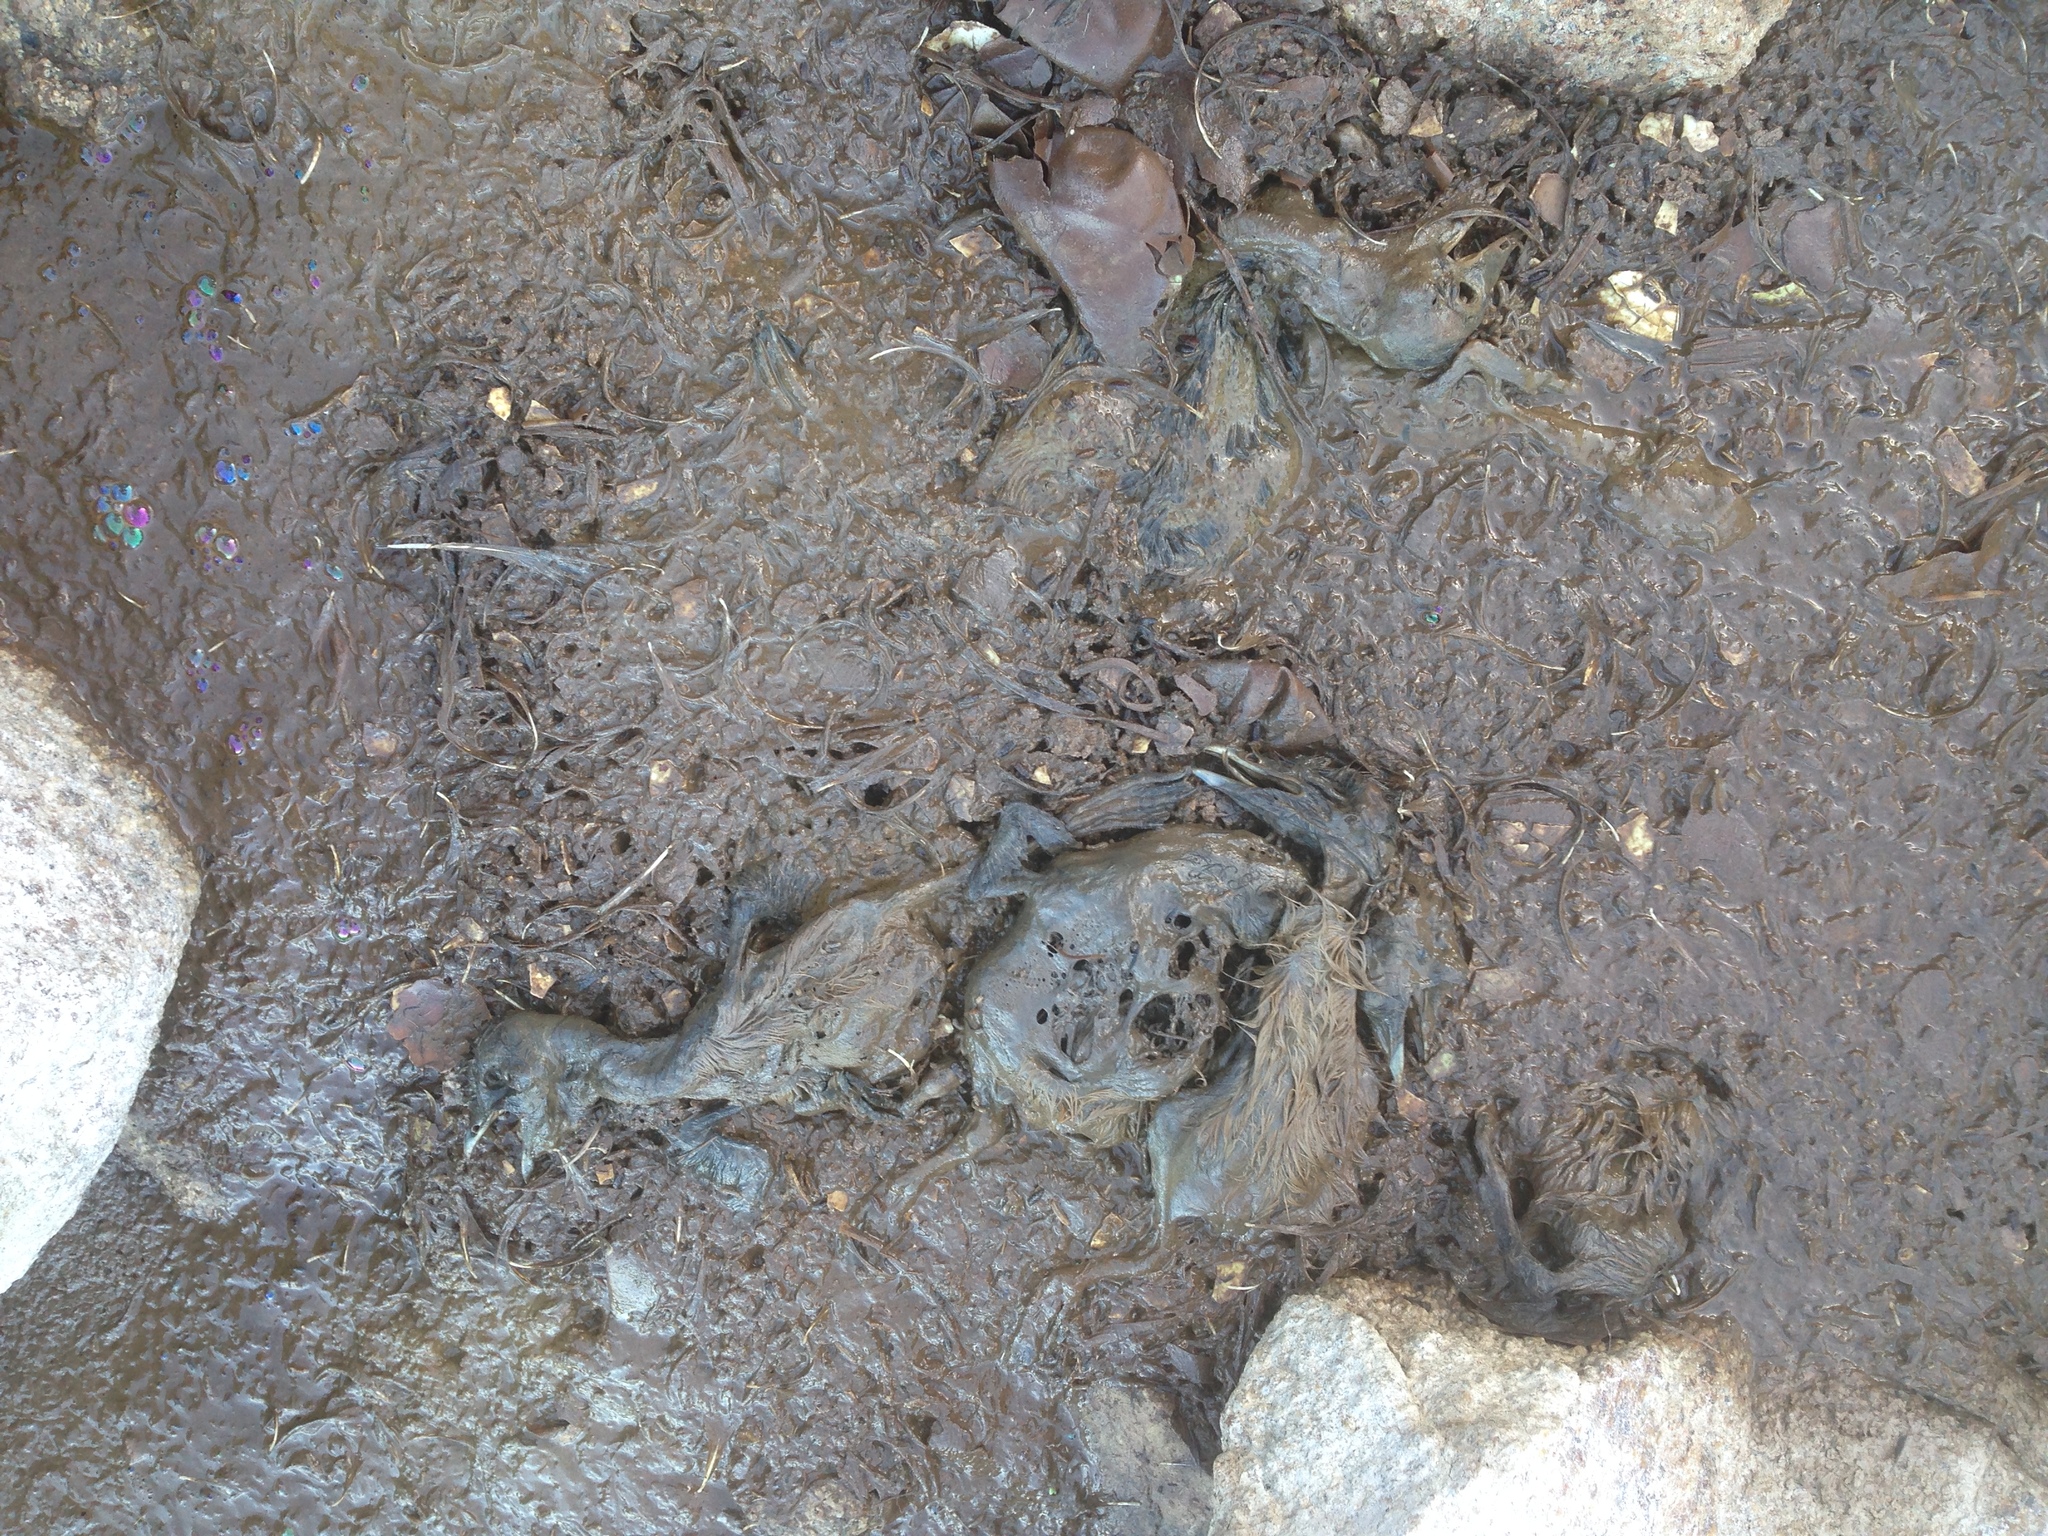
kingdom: Animalia
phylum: Chordata
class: Aves
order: Charadriiformes
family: Alcidae
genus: Uria
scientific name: Uria aalge
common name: Common murre
